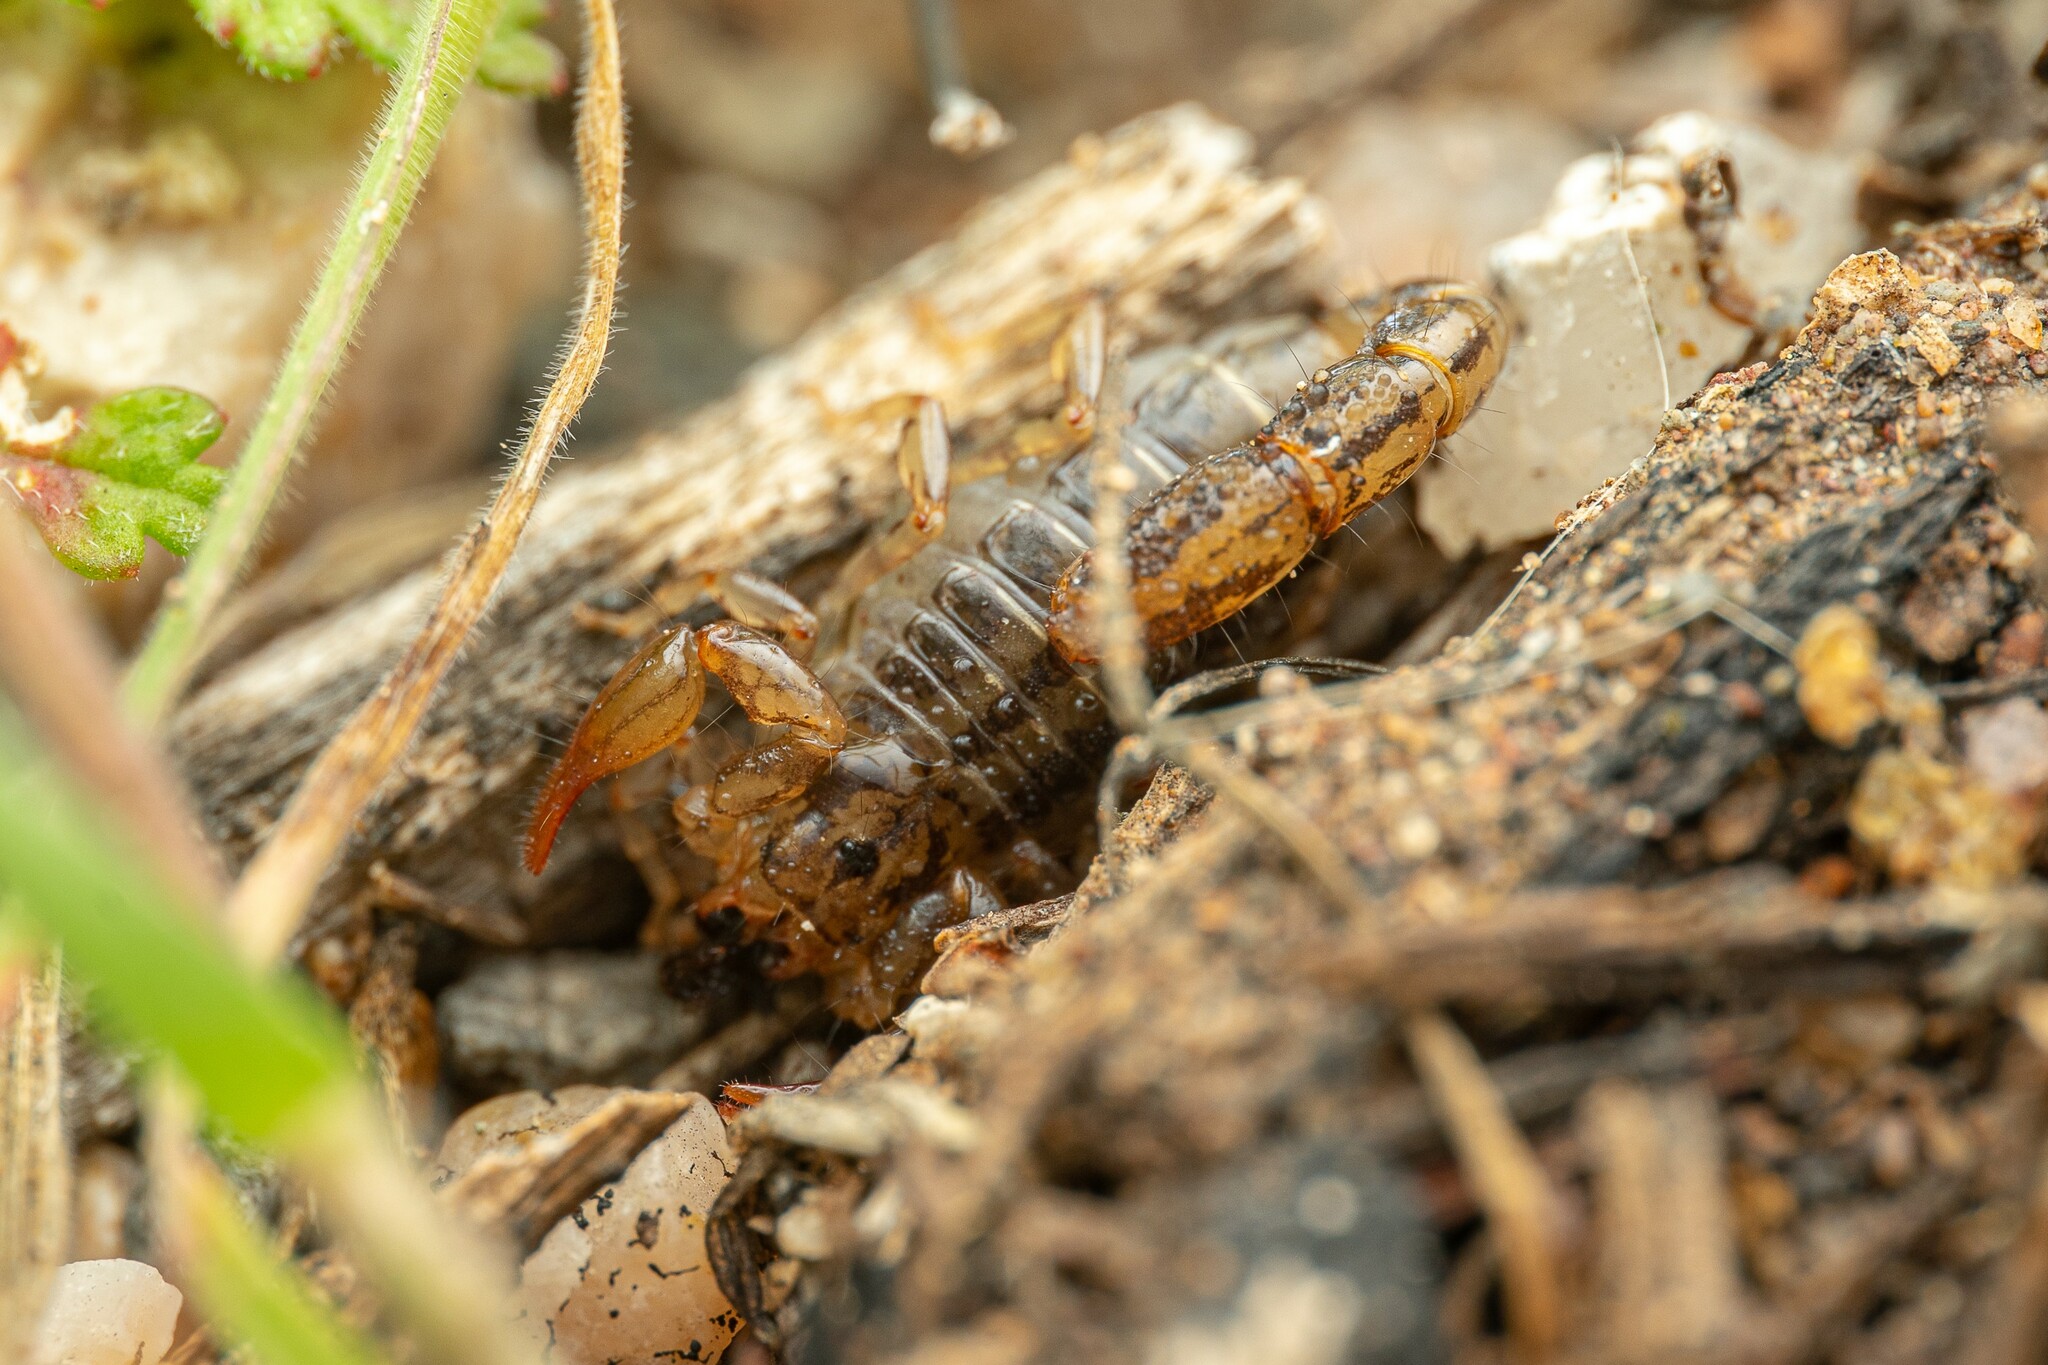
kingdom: Animalia
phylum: Arthropoda
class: Arachnida
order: Scorpiones
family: Superstitioniidae
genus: Superstitionia
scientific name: Superstitionia donensis
